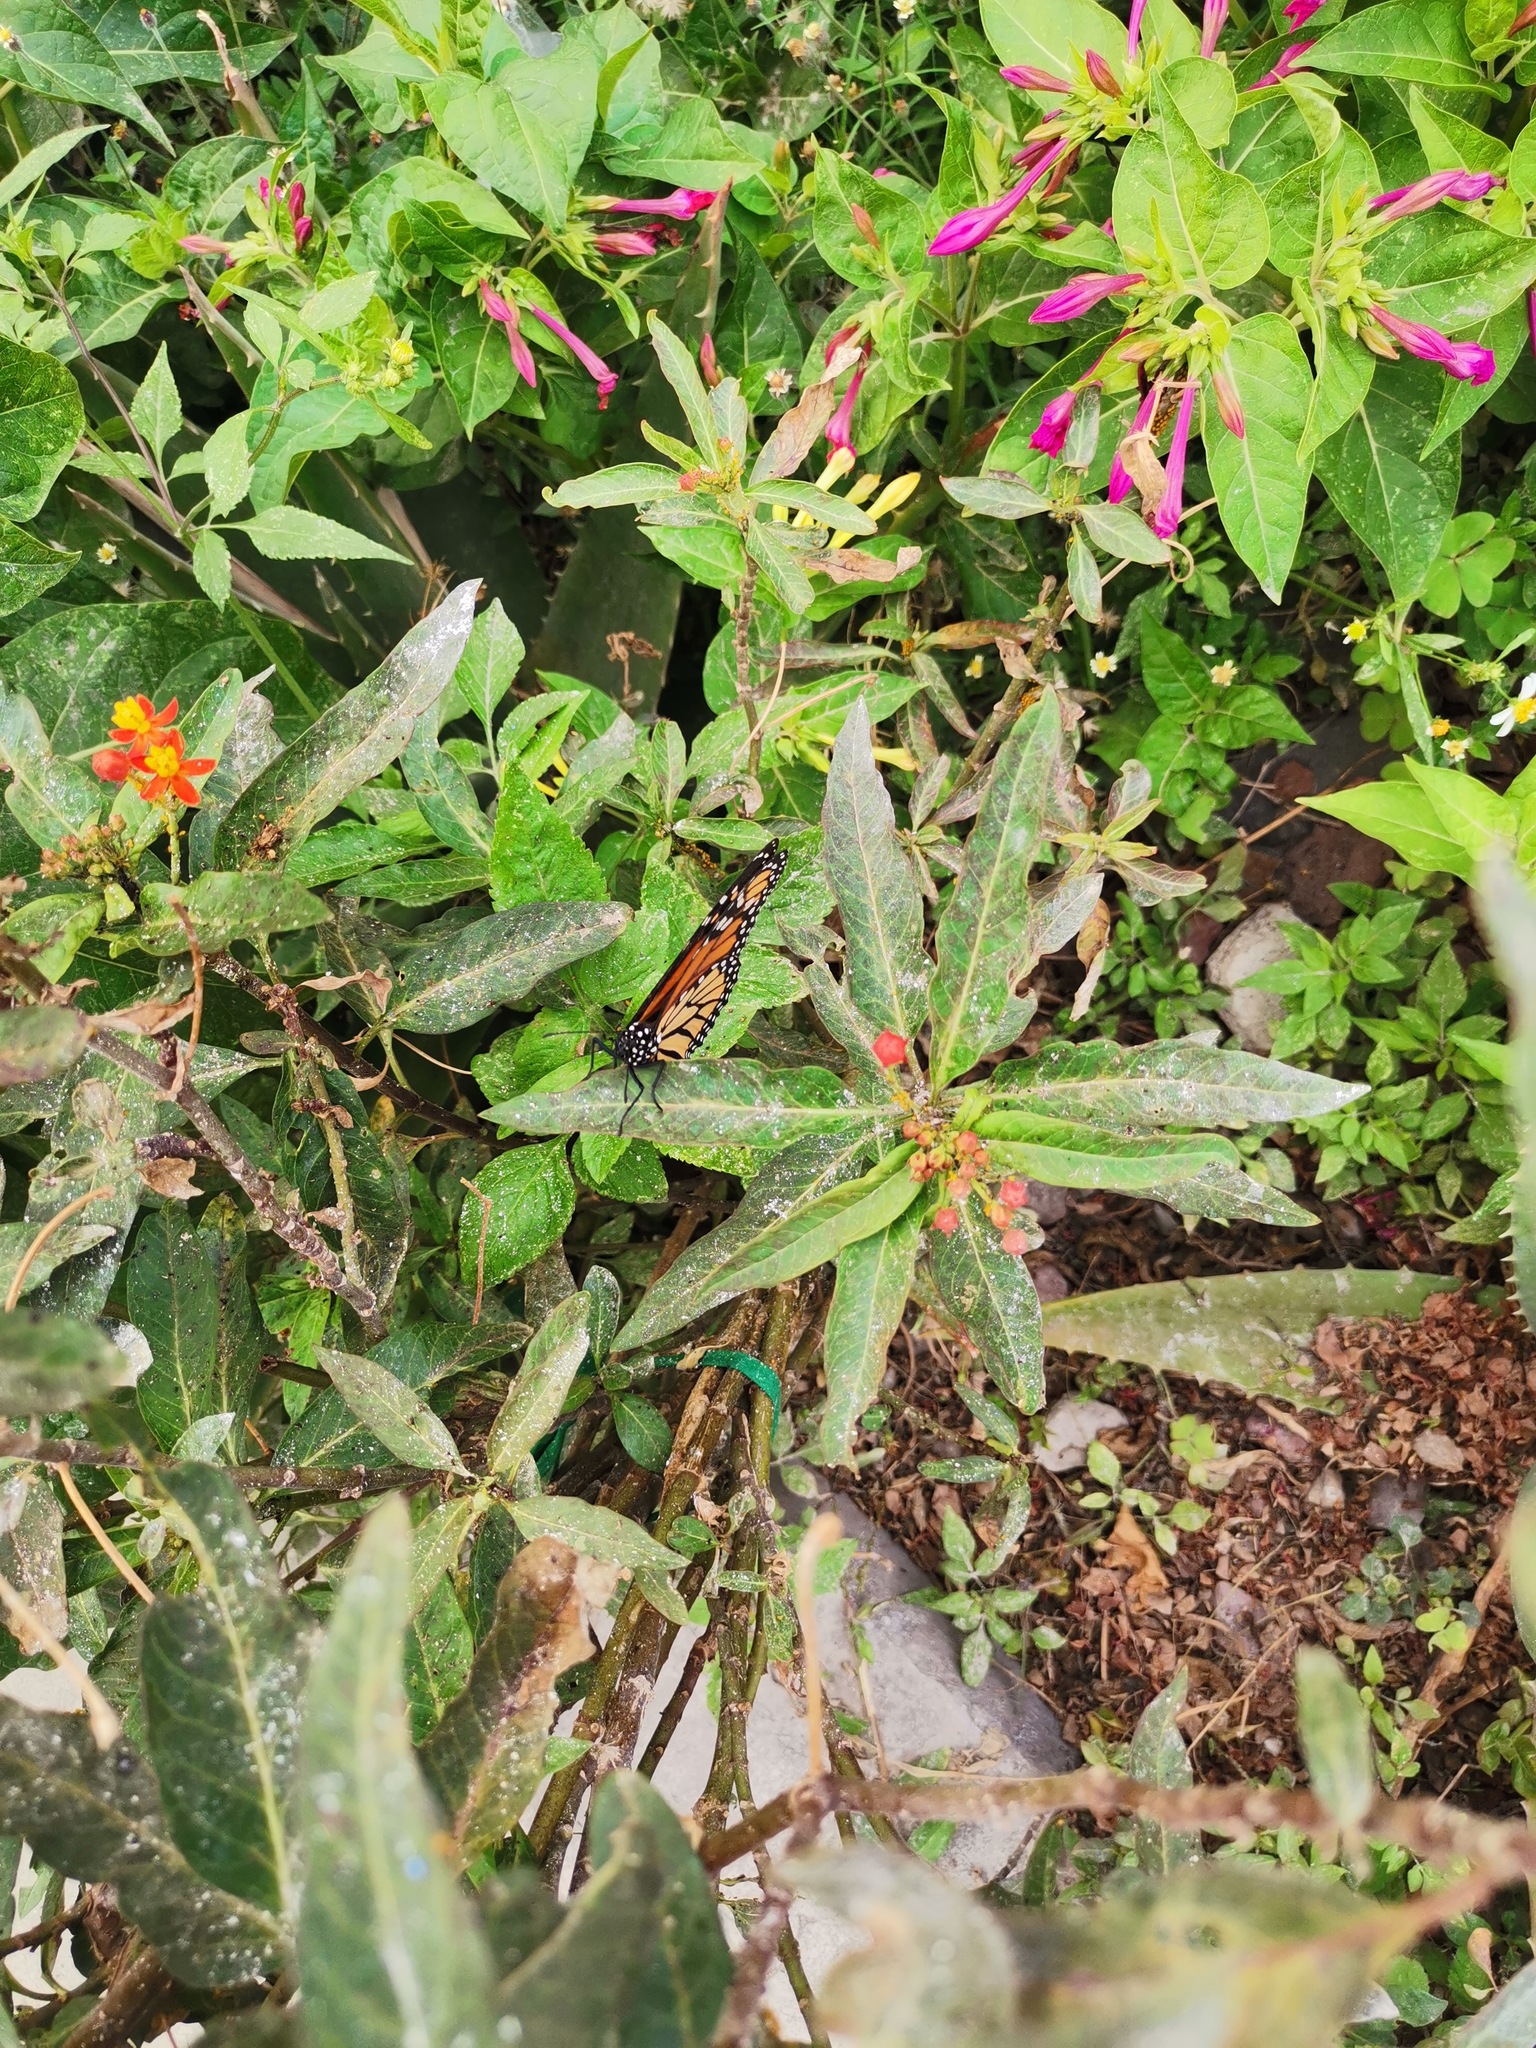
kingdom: Animalia
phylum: Arthropoda
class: Insecta
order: Lepidoptera
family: Nymphalidae
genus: Danaus
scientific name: Danaus plexippus
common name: Monarch
